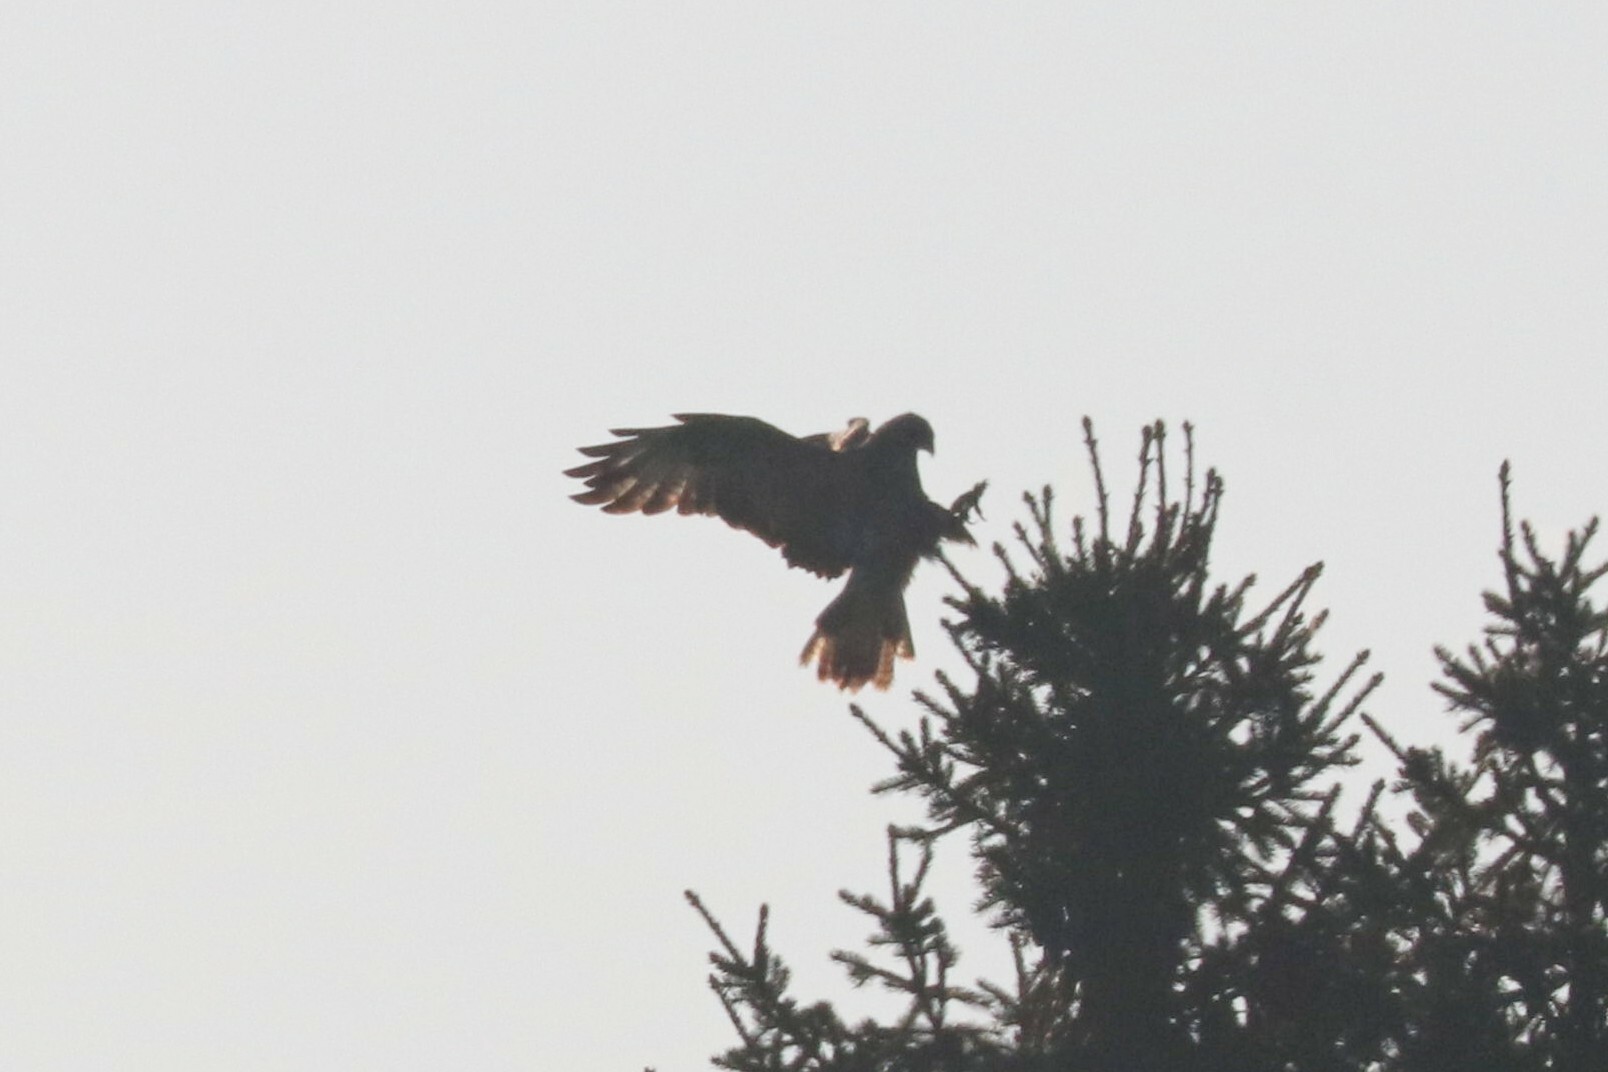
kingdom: Animalia
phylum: Chordata
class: Aves
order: Accipitriformes
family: Accipitridae
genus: Buteo
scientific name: Buteo buteo
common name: Common buzzard
